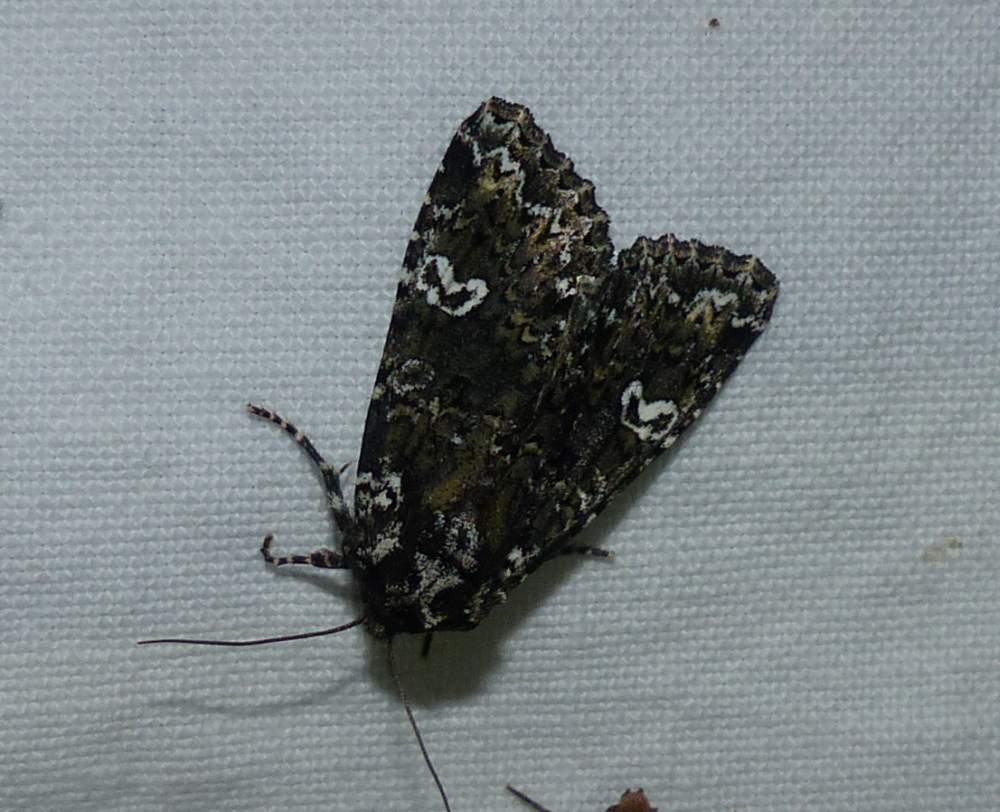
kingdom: Animalia
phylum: Arthropoda
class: Insecta
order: Lepidoptera
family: Noctuidae
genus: Melanchra
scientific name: Melanchra adjuncta
